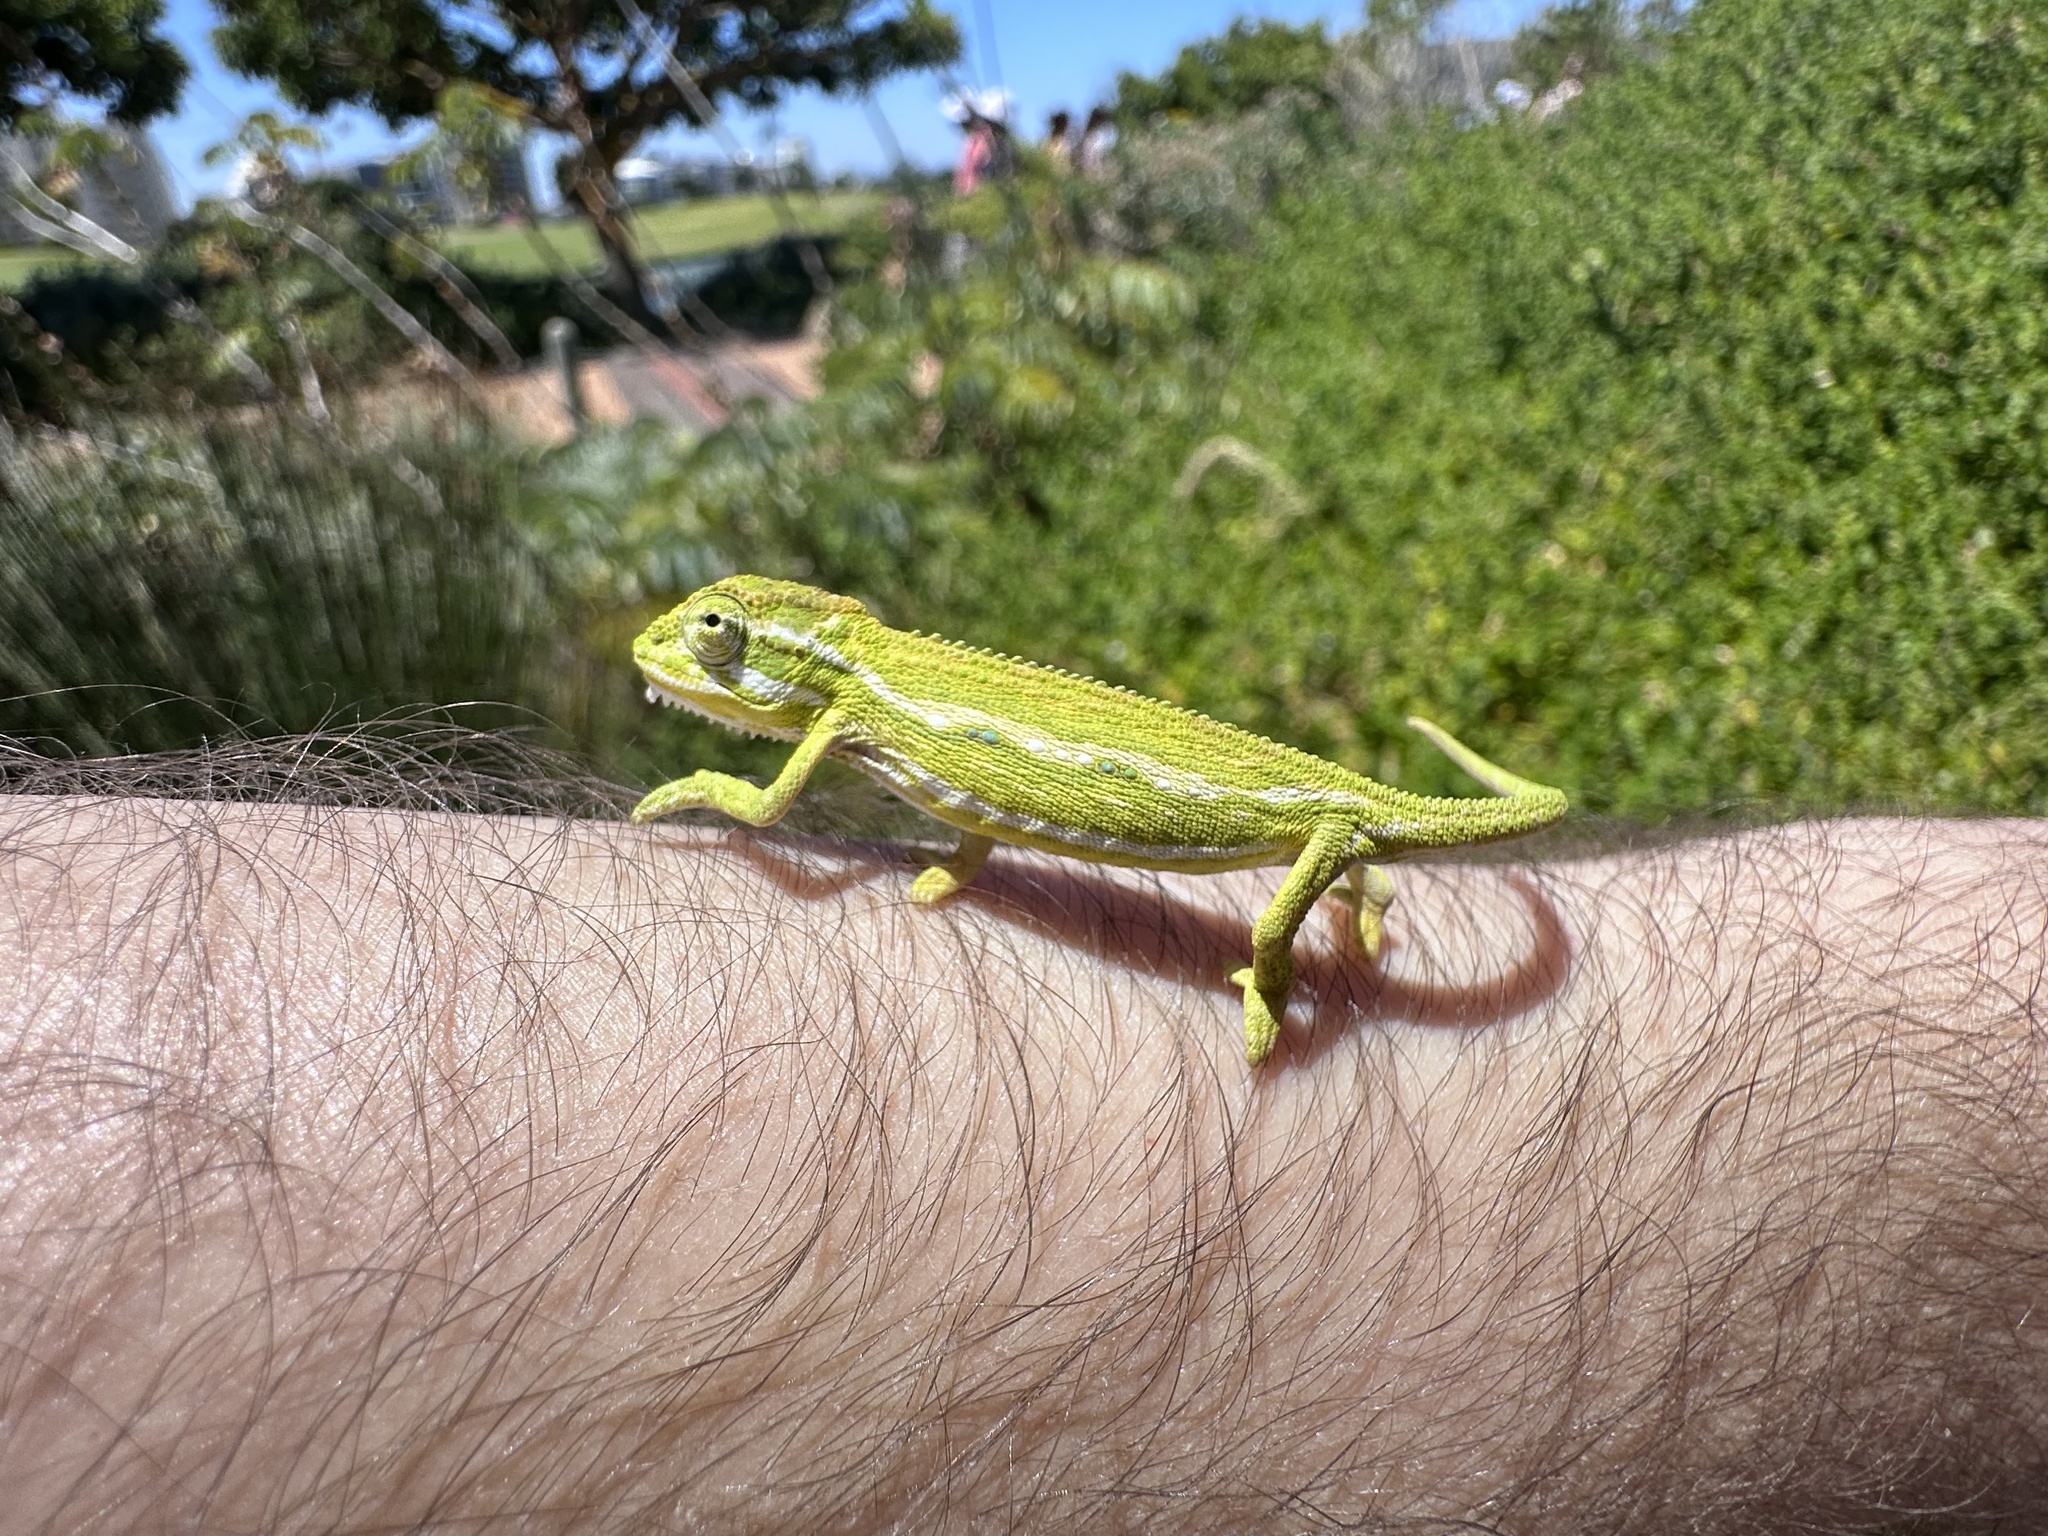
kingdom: Animalia
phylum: Chordata
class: Squamata
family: Chamaeleonidae
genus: Bradypodion
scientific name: Bradypodion pumilum
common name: Cape dwarf chameleon
